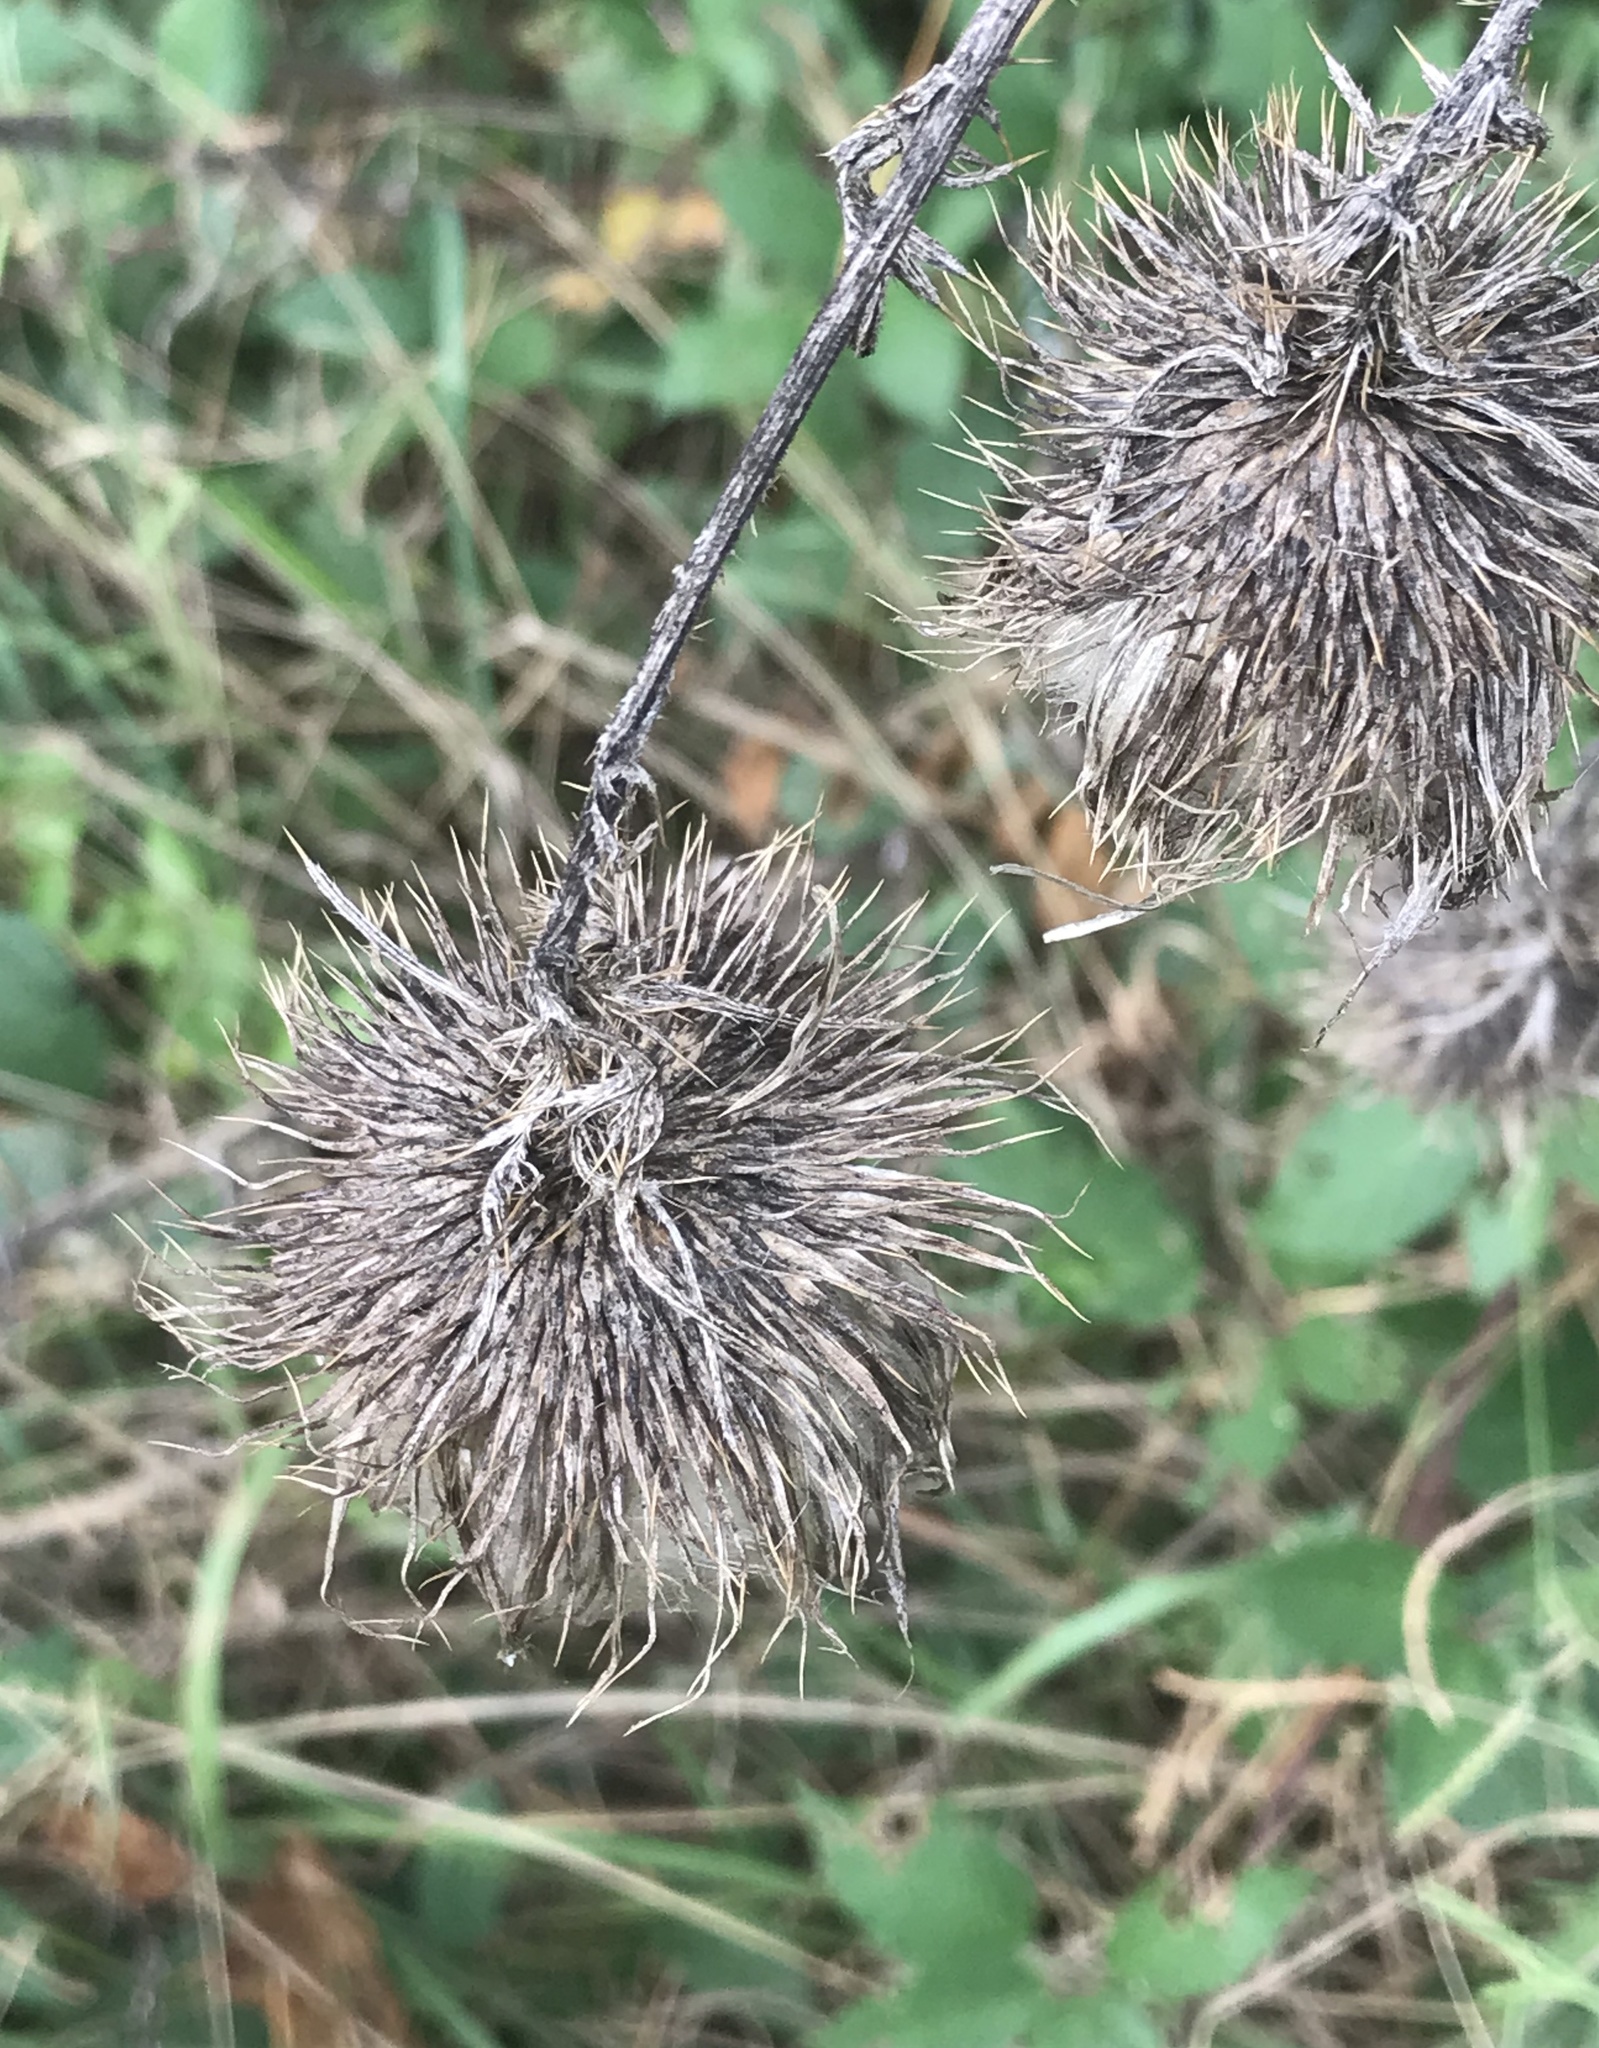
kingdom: Plantae
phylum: Tracheophyta
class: Magnoliopsida
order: Asterales
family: Asteraceae
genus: Cirsium
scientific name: Cirsium vulgare
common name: Bull thistle
